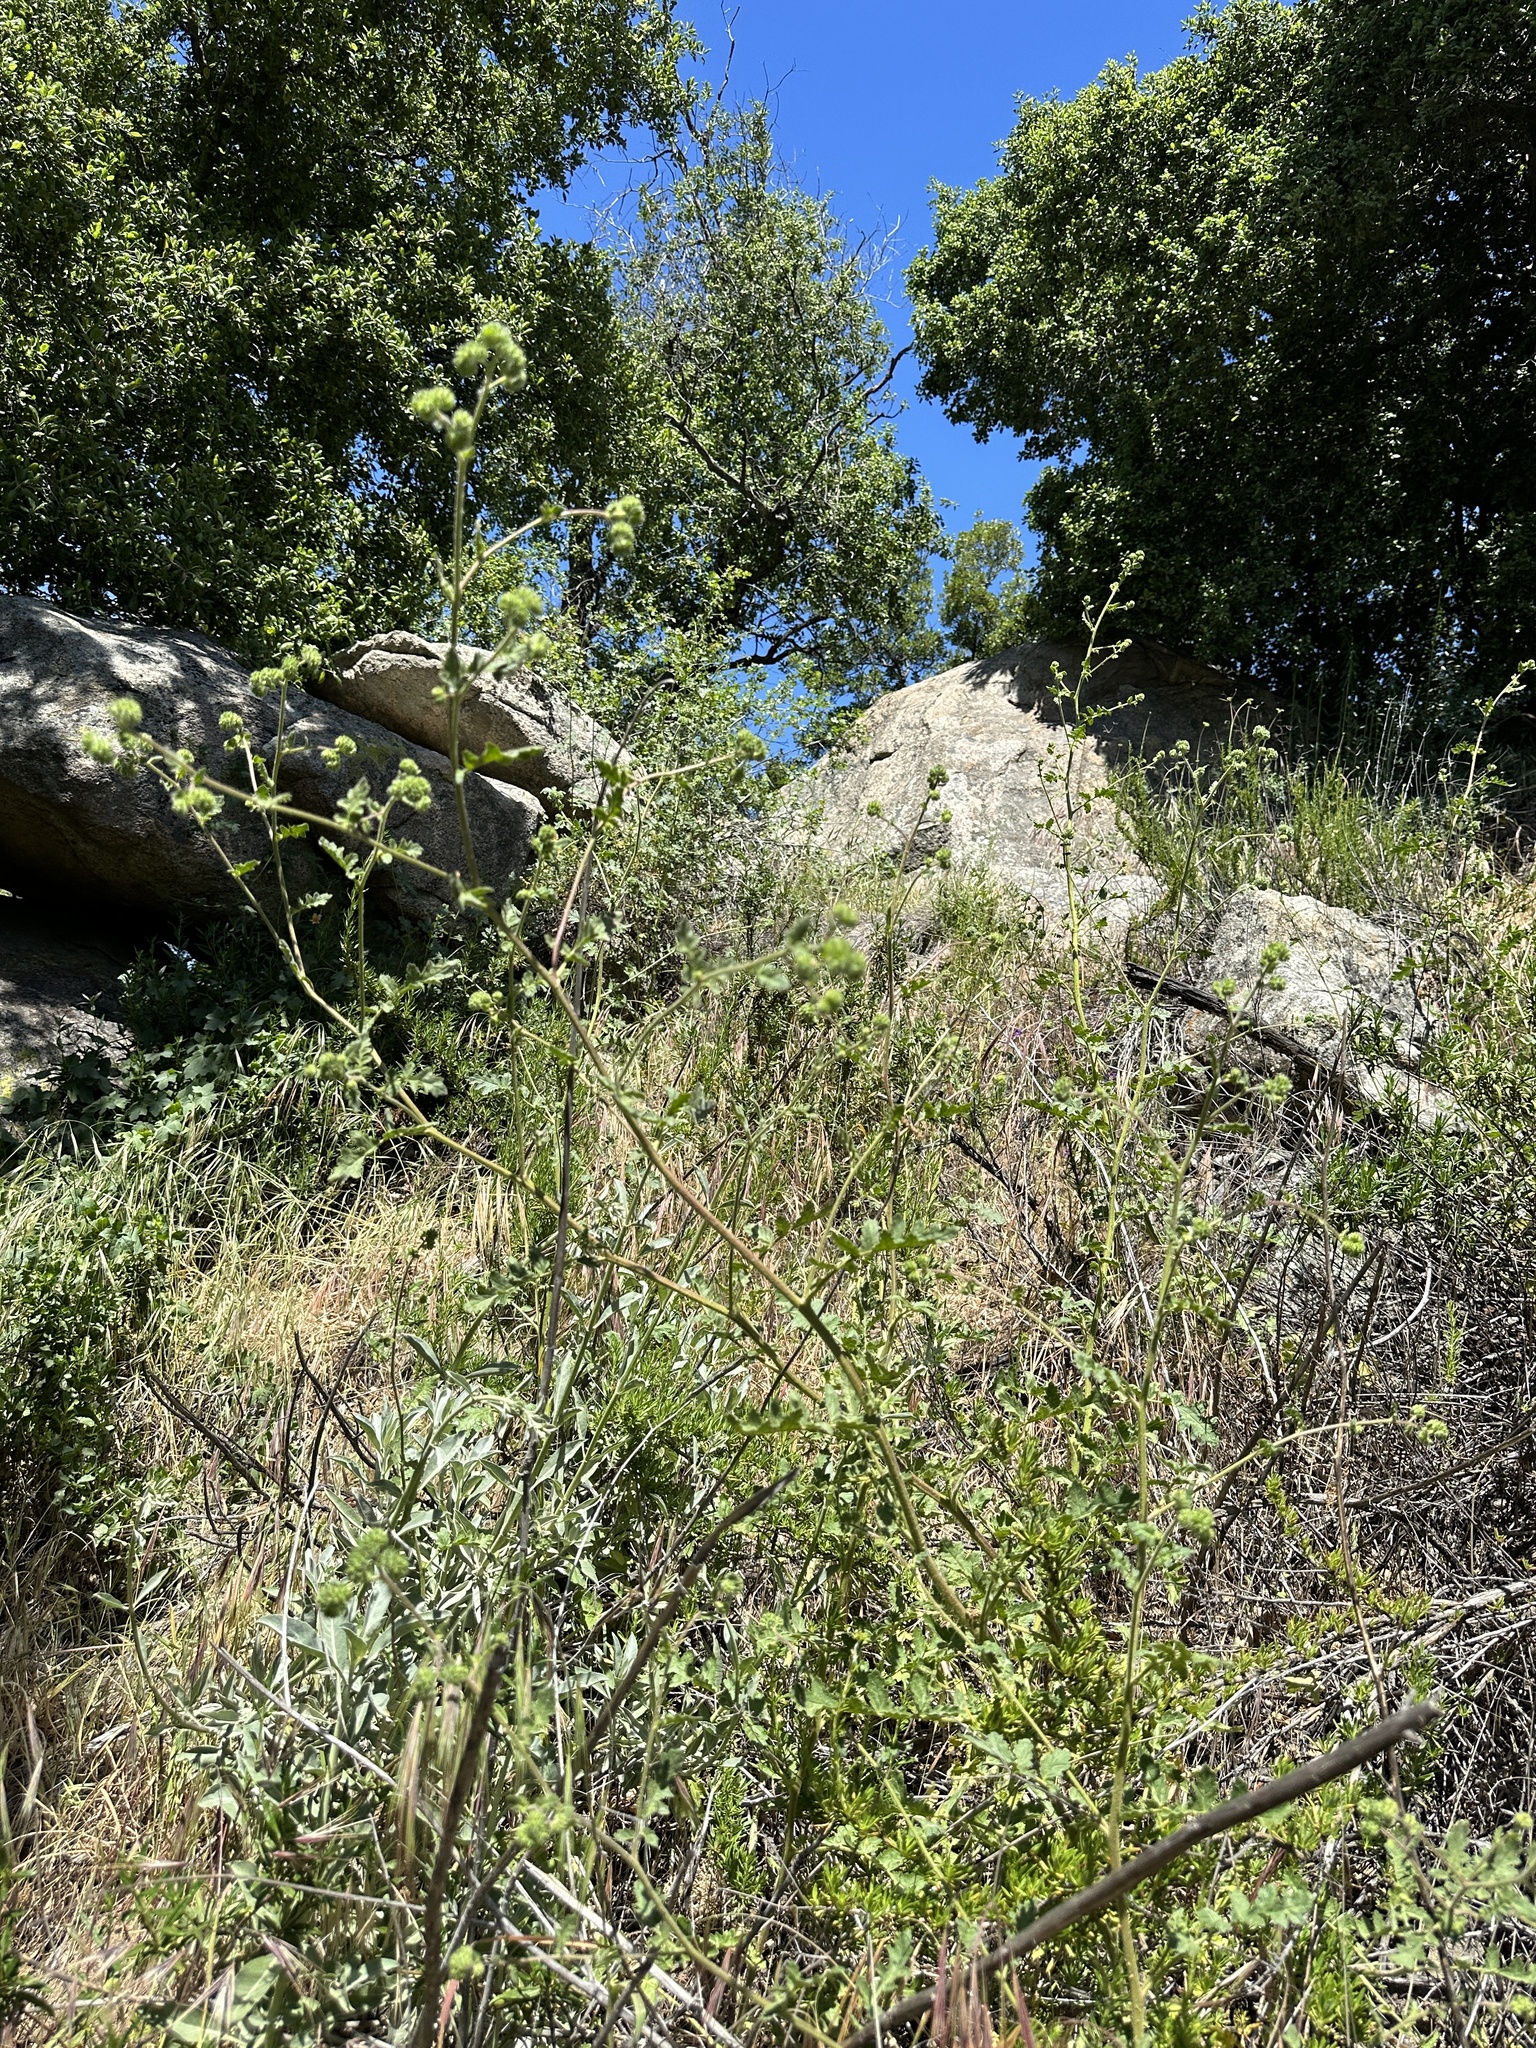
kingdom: Plantae
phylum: Tracheophyta
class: Magnoliopsida
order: Boraginales
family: Hydrophyllaceae
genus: Phacelia
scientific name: Phacelia ramosissima
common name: Branching phacelia
